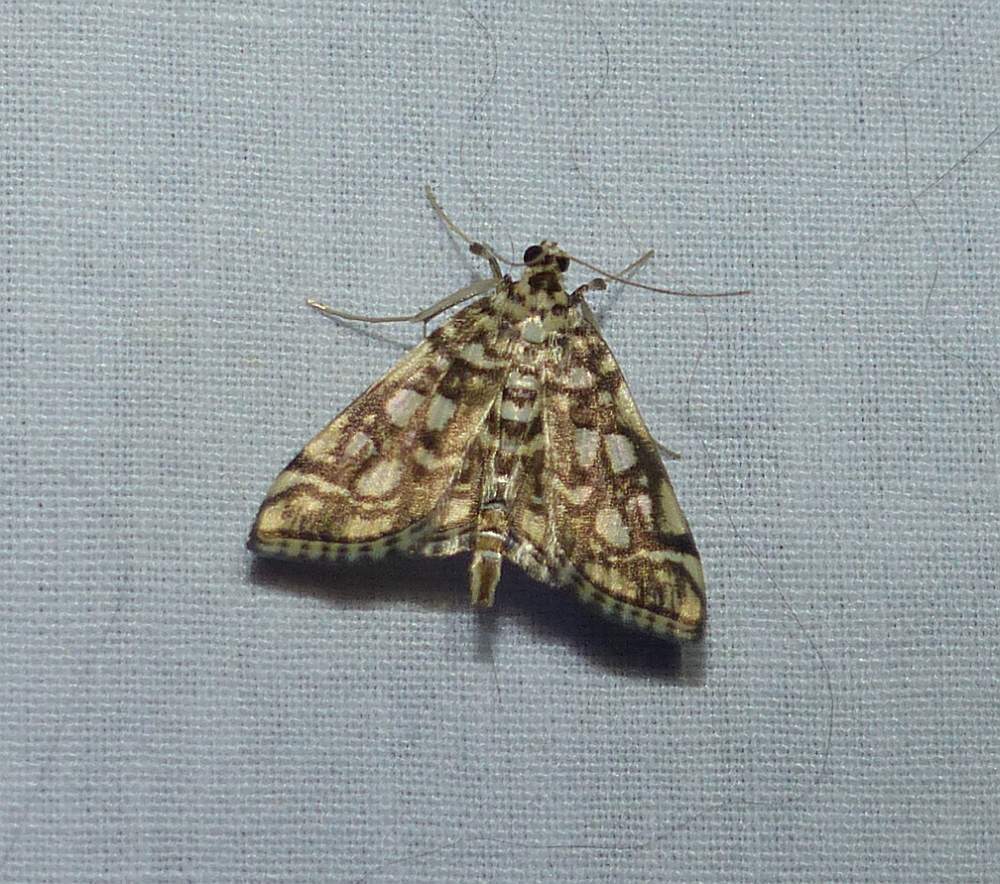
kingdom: Animalia
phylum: Arthropoda
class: Insecta
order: Lepidoptera
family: Crambidae
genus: Lygropia
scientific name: Lygropia rivulalis
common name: Bog lygropia moth
